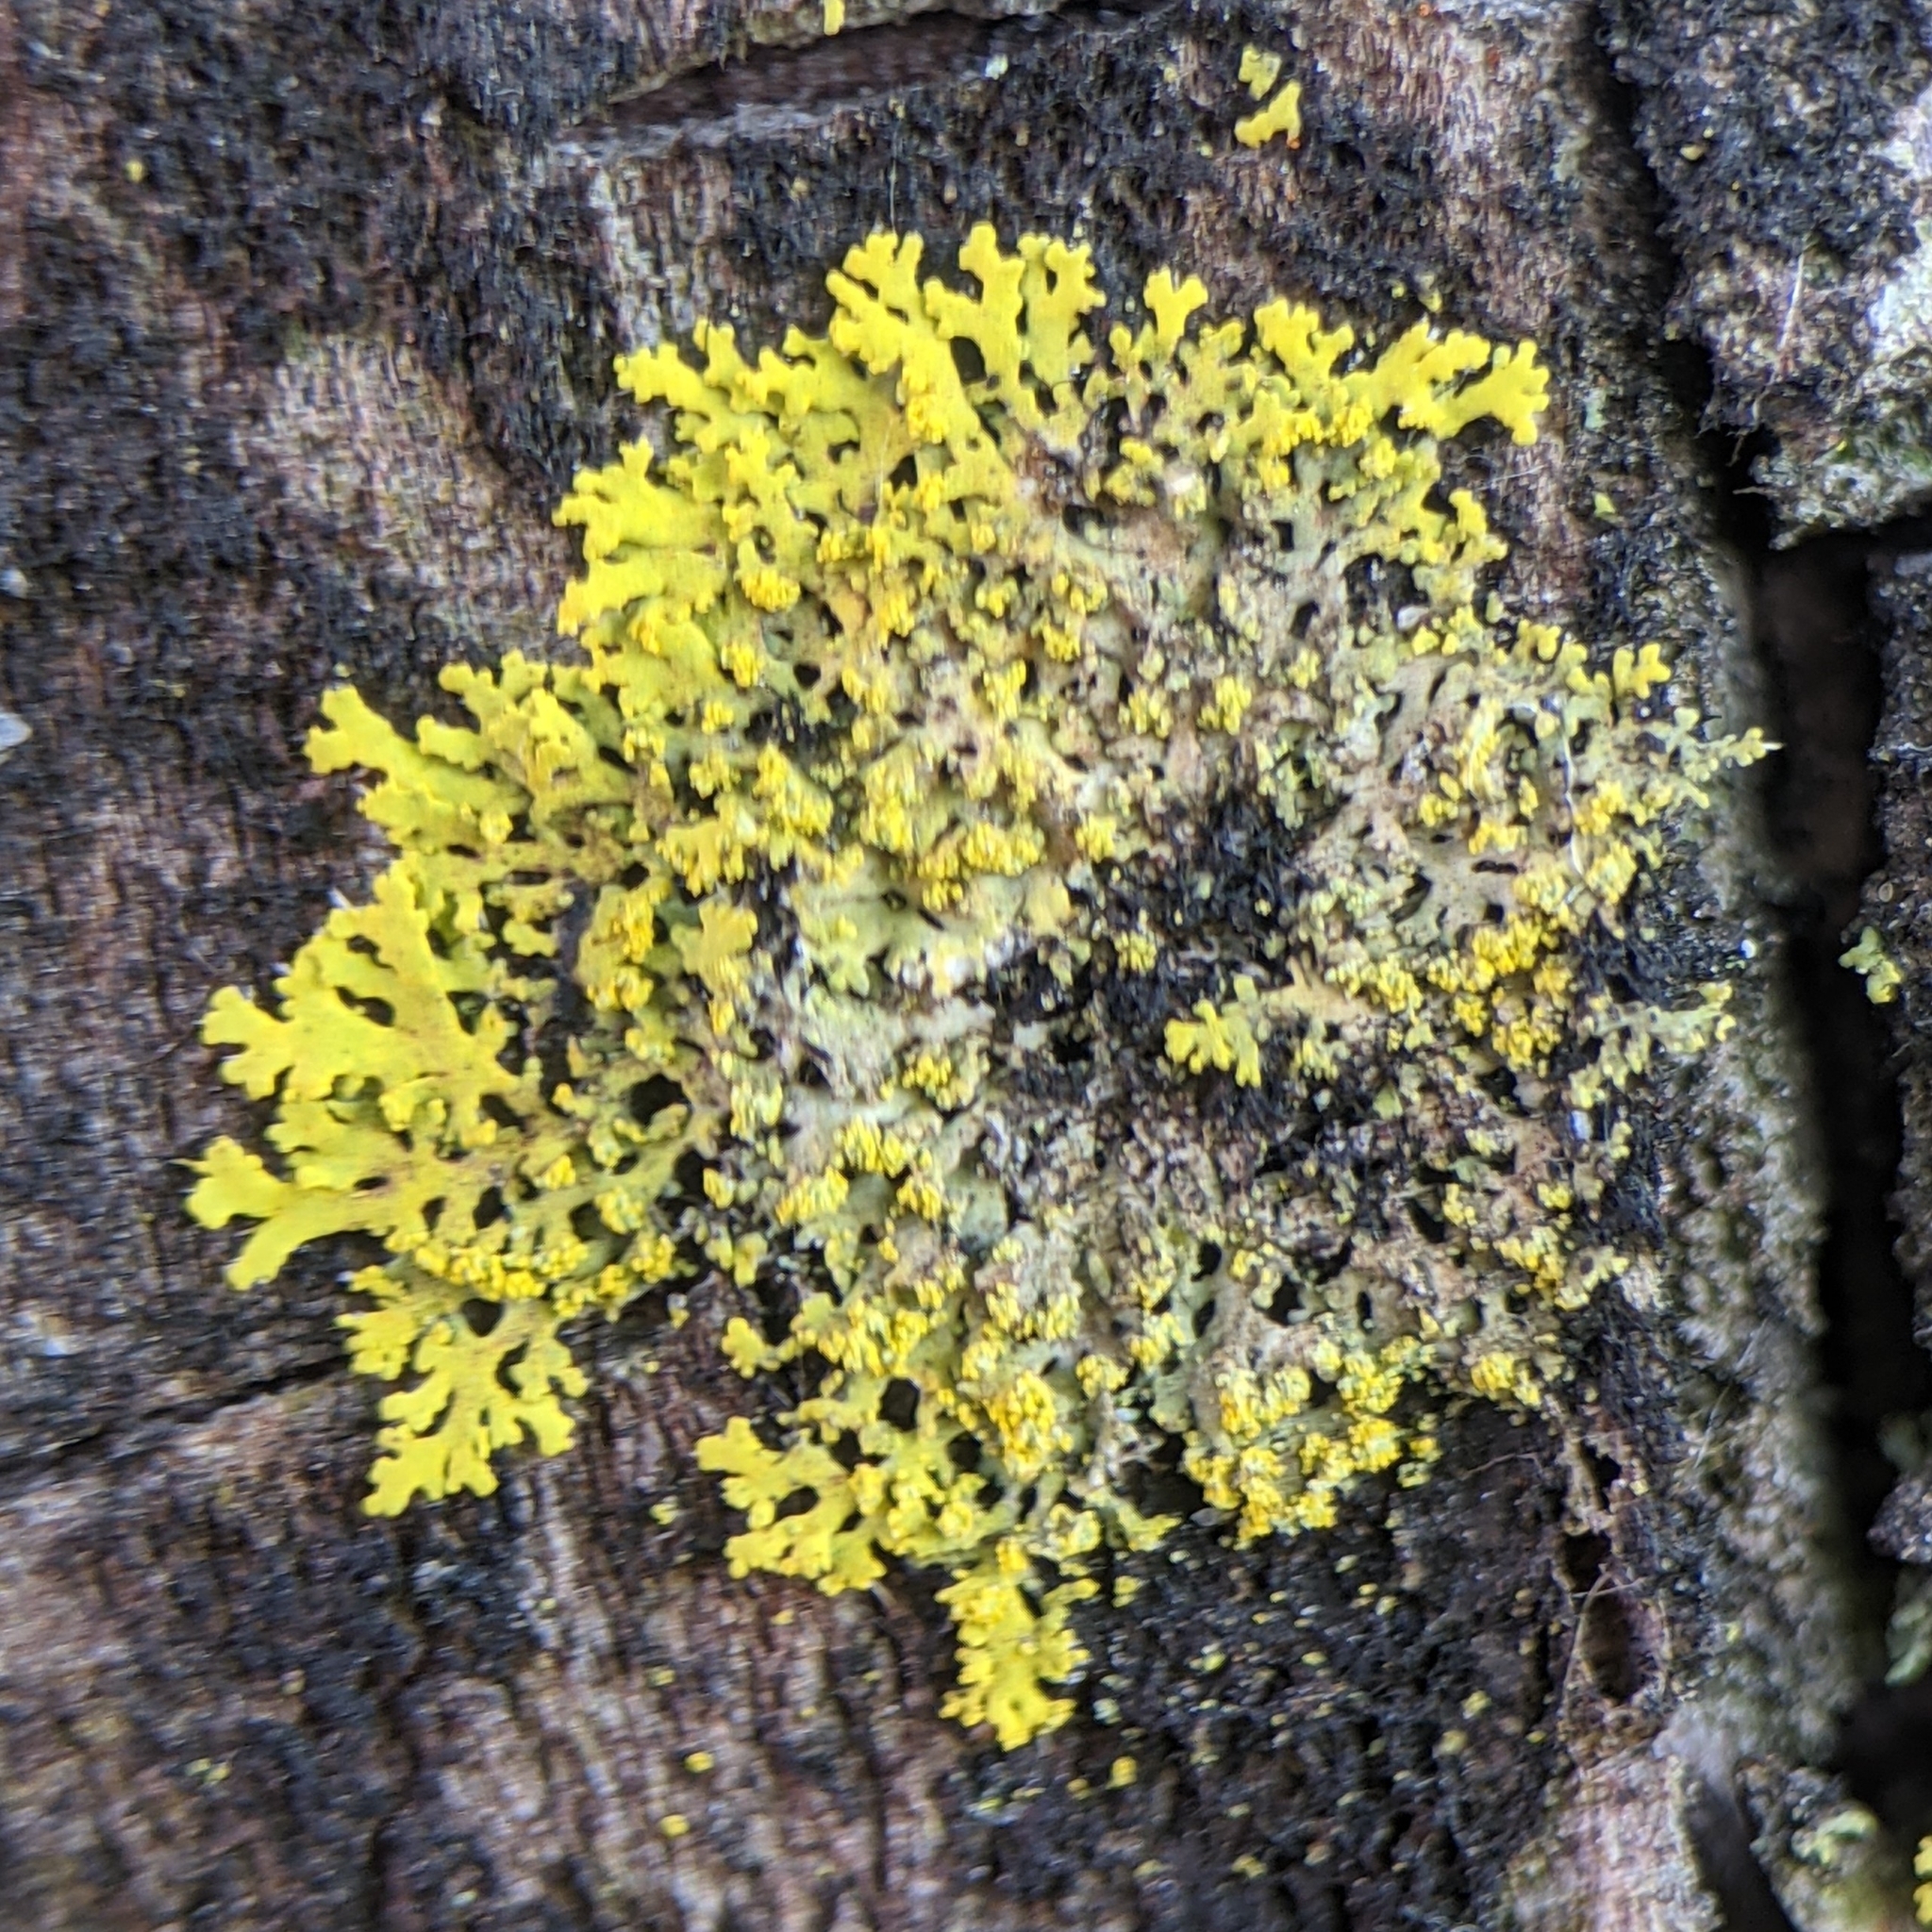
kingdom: Fungi
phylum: Ascomycota
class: Candelariomycetes
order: Candelariales
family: Candelariaceae
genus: Candelaria
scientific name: Candelaria concolor
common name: Candleflame lichen
